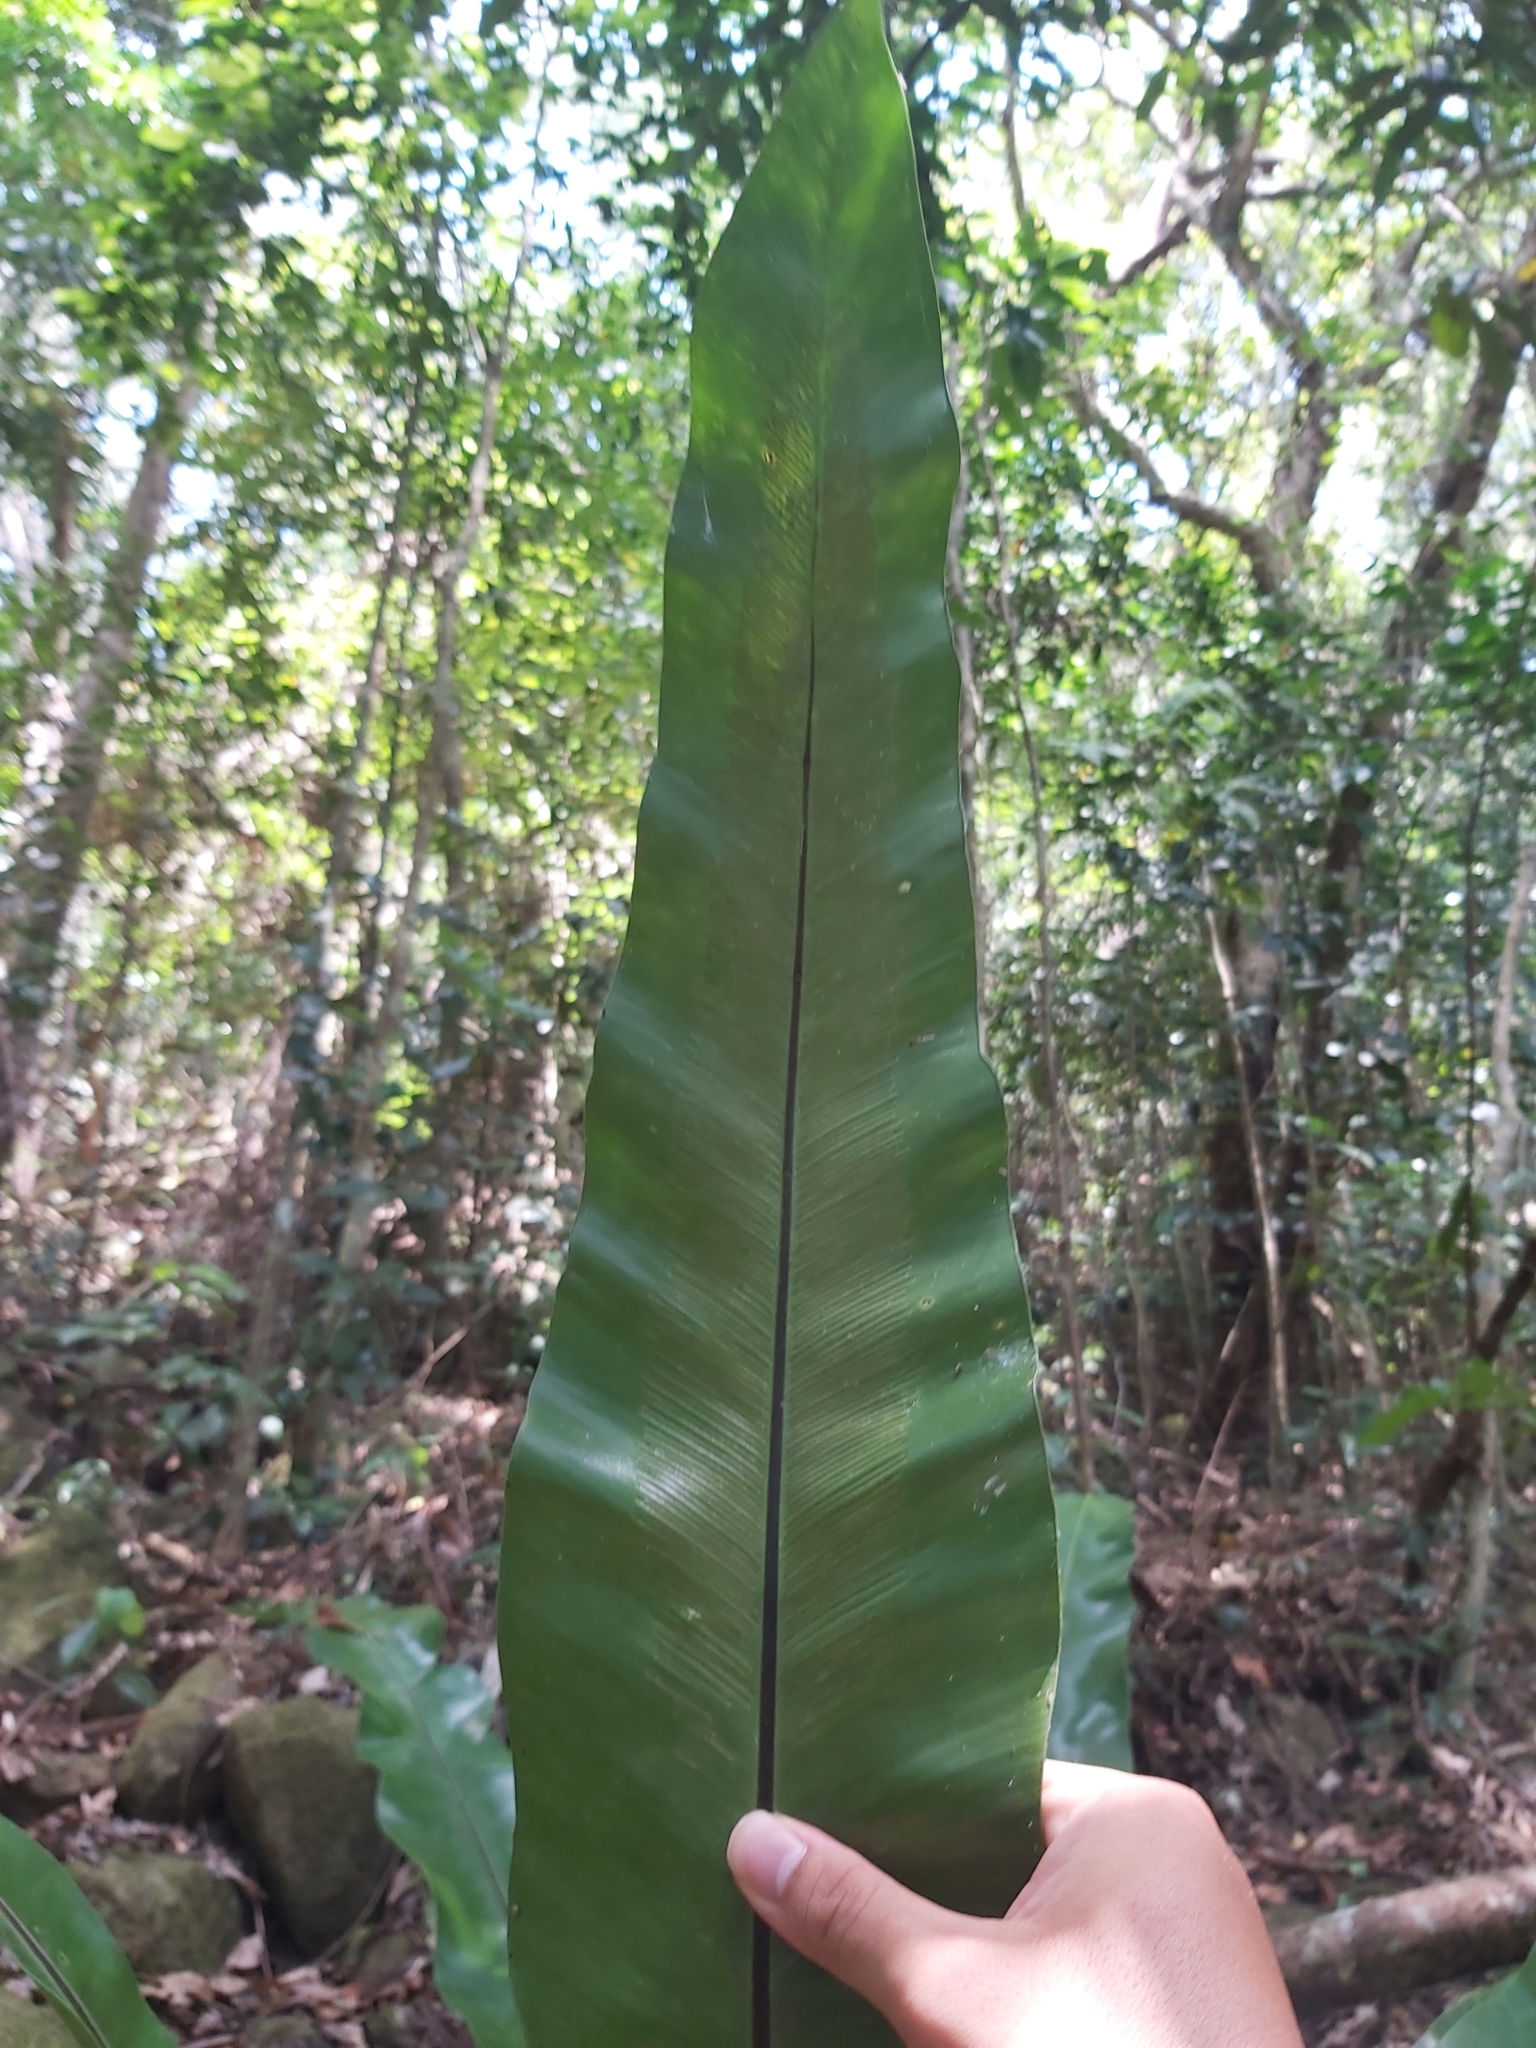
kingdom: Plantae
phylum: Tracheophyta
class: Polypodiopsida
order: Polypodiales
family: Aspleniaceae
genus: Asplenium
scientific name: Asplenium australasicum
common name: Bird's-nest fern
